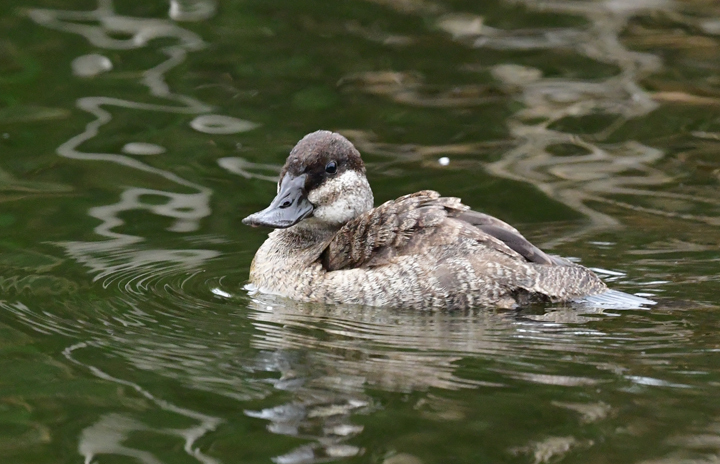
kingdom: Animalia
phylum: Chordata
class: Aves
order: Anseriformes
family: Anatidae
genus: Oxyura
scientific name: Oxyura jamaicensis
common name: Ruddy duck
